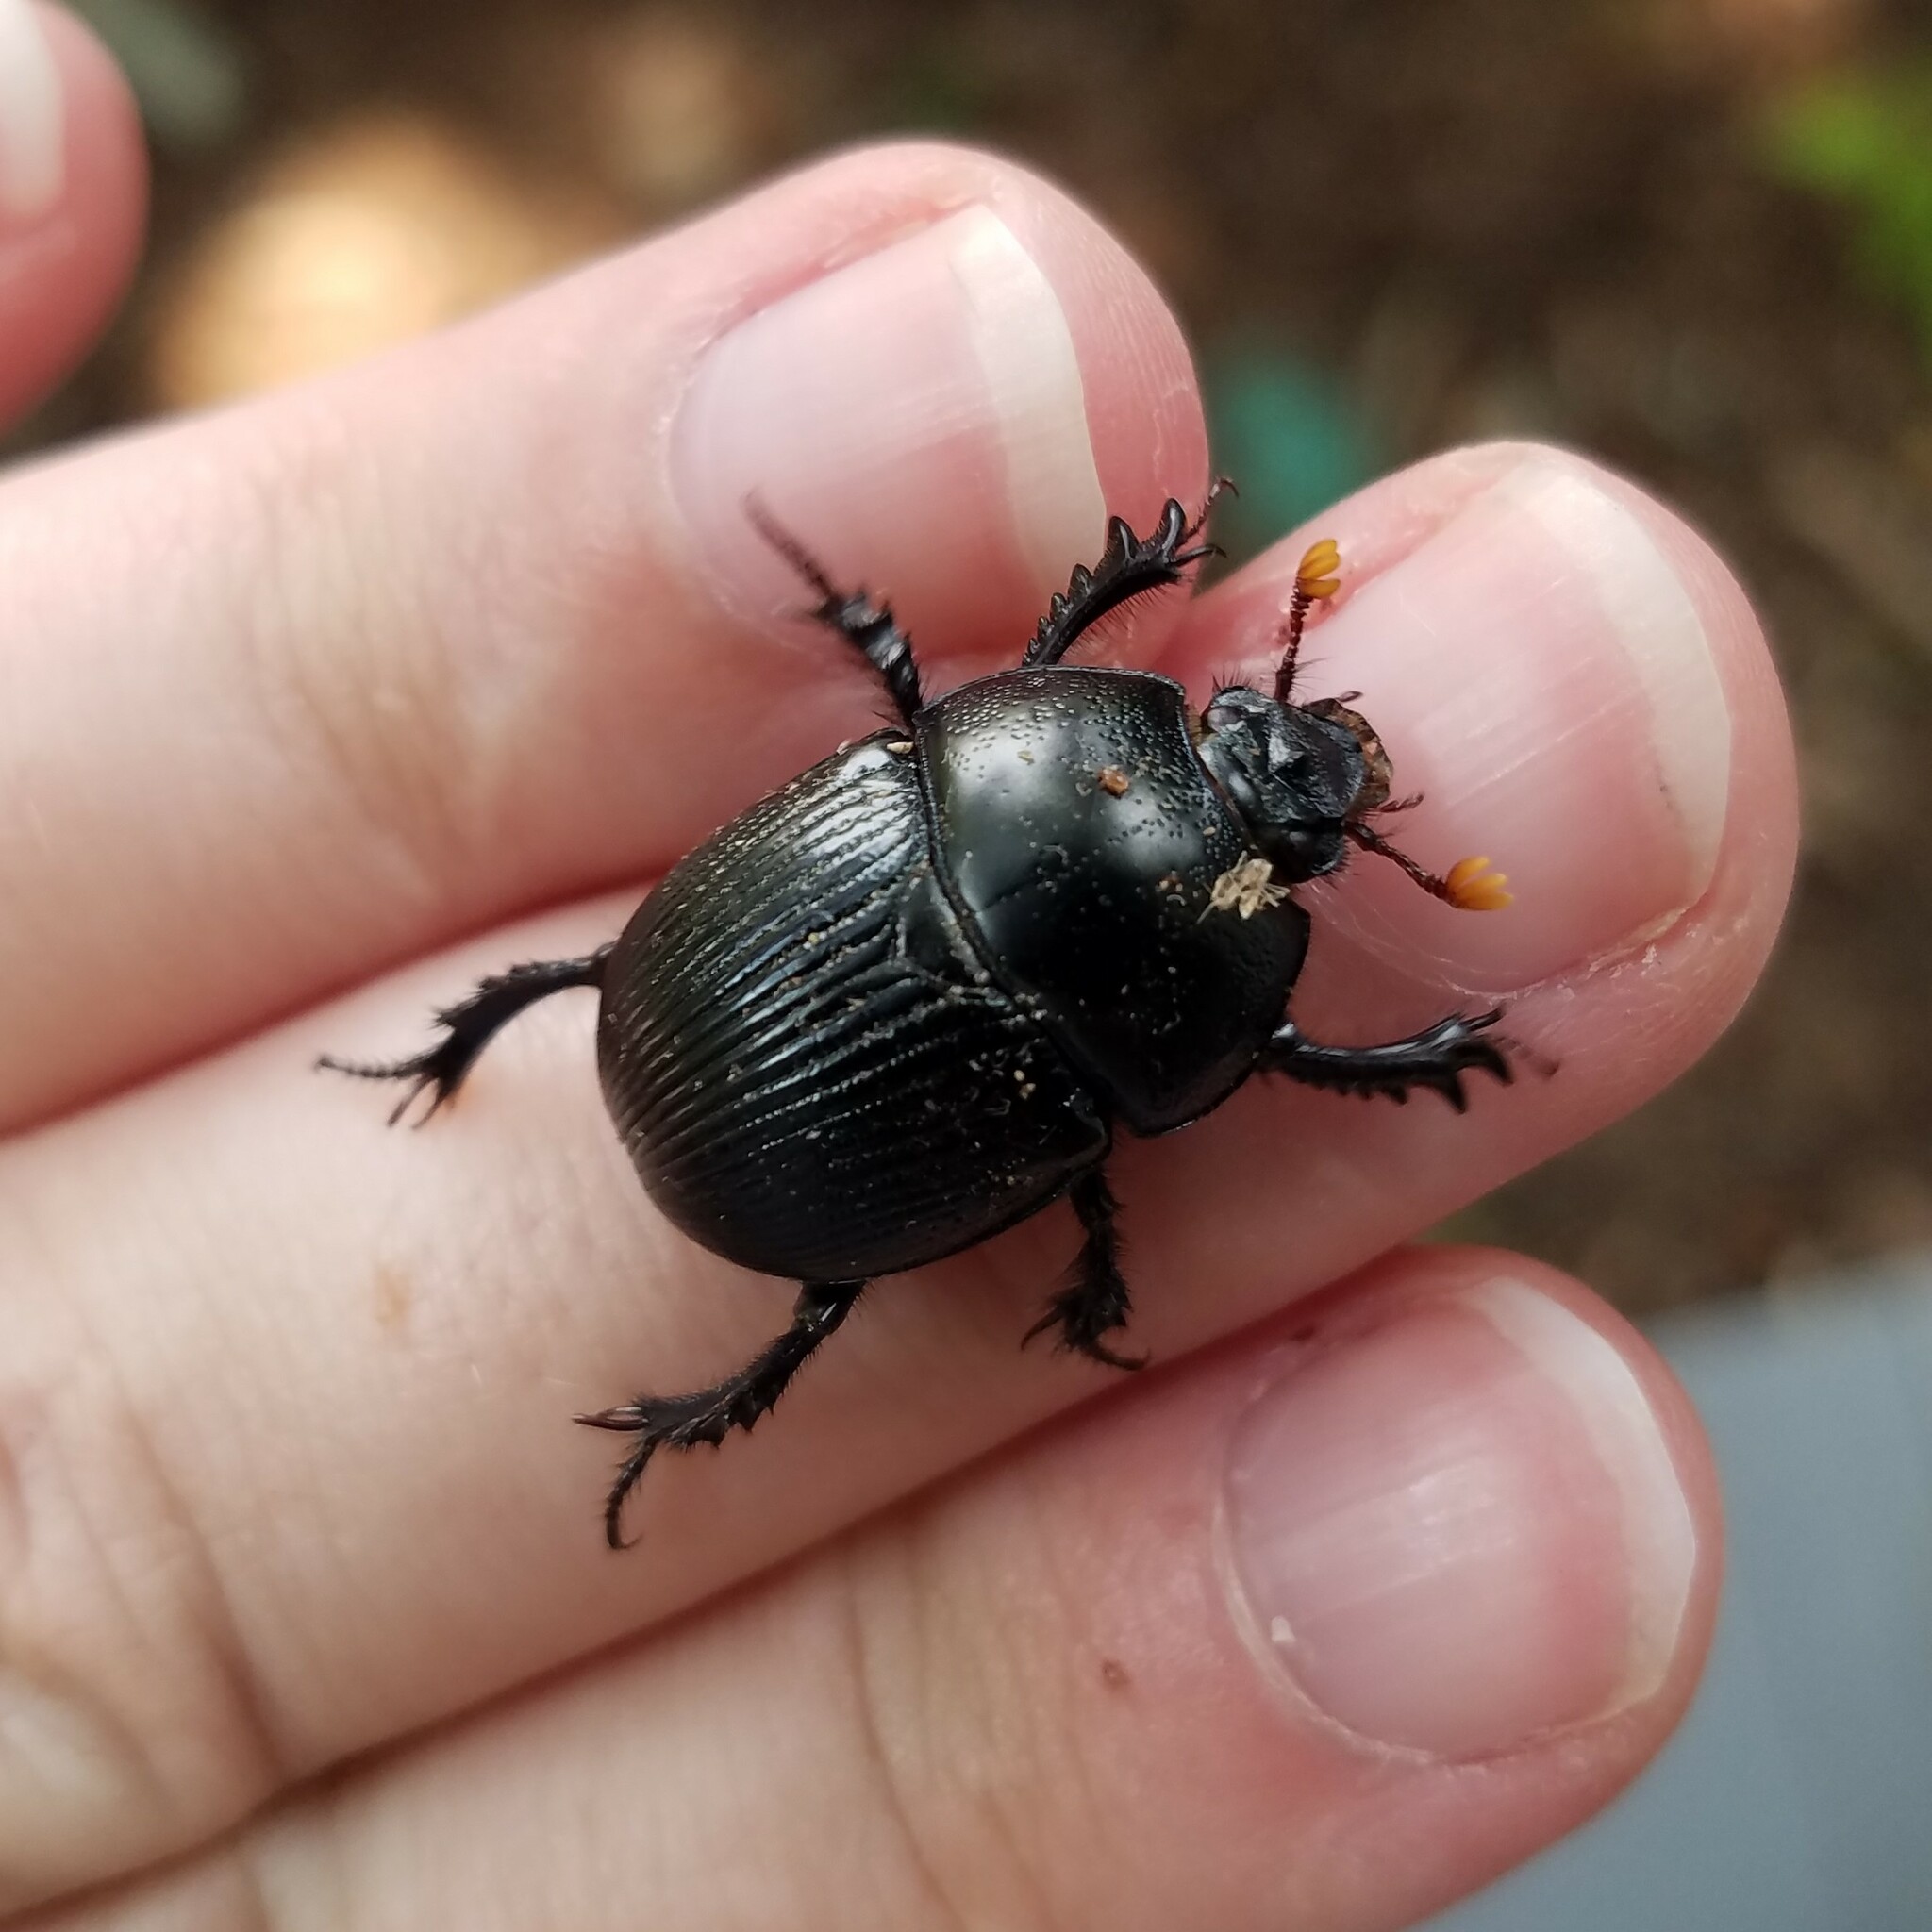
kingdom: Animalia
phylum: Arthropoda
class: Insecta
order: Coleoptera
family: Geotrupidae
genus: Geotrupes
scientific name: Geotrupes egeriei
